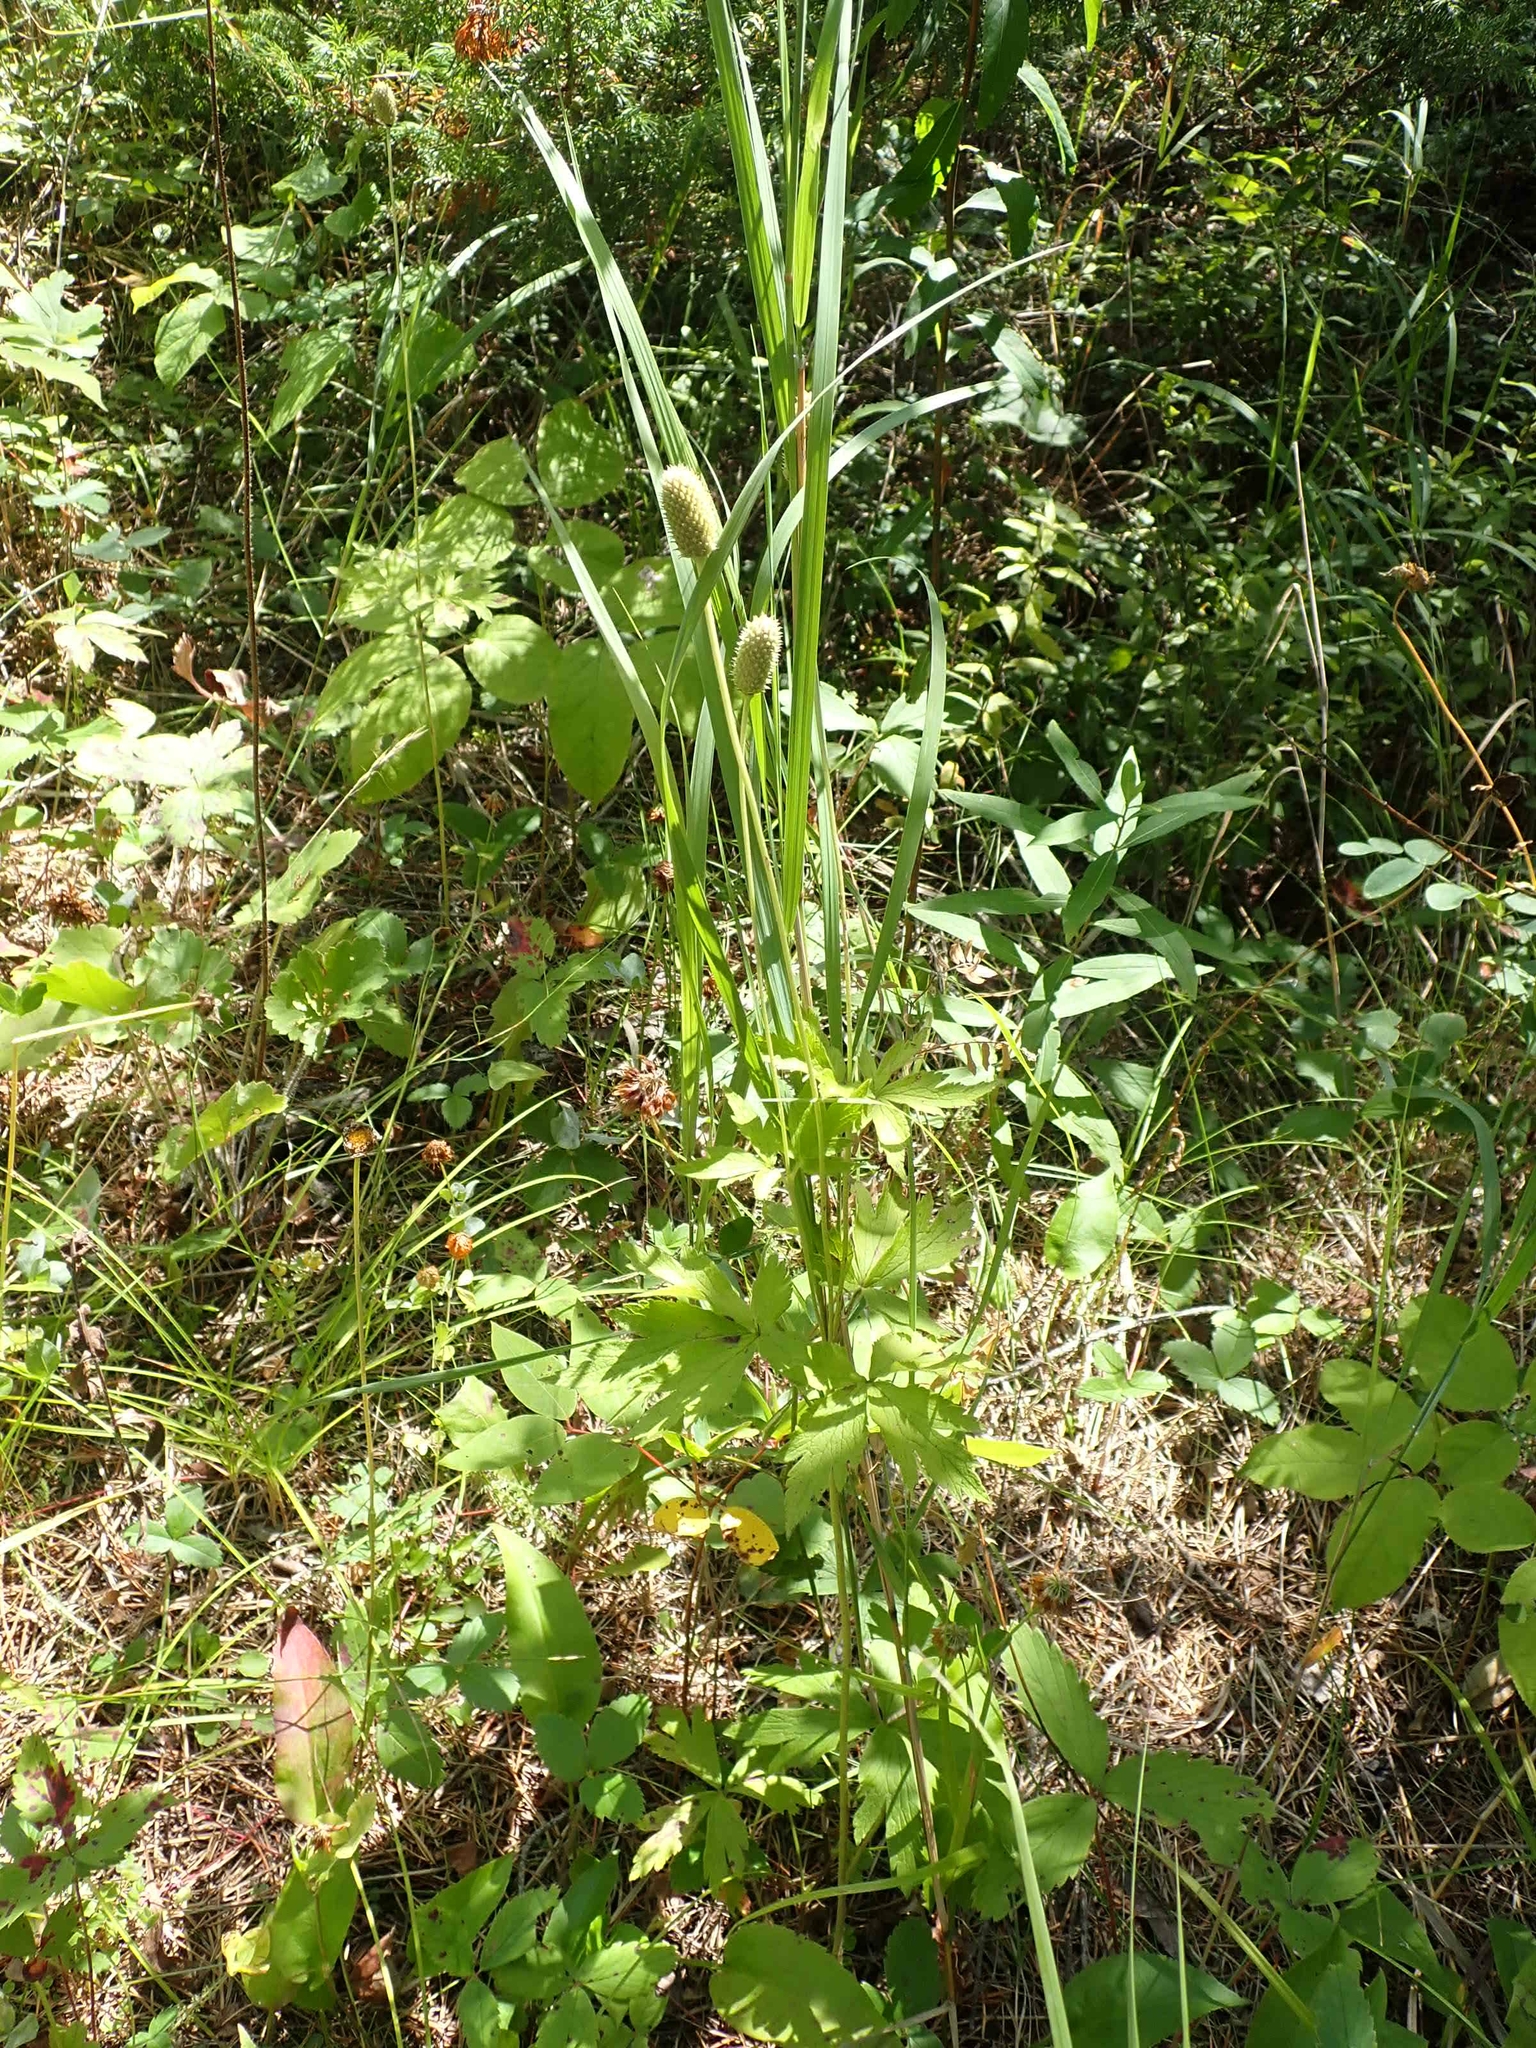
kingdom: Plantae
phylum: Tracheophyta
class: Magnoliopsida
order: Ranunculales
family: Ranunculaceae
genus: Anemone
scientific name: Anemone cylindrica
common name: Candle anemone
